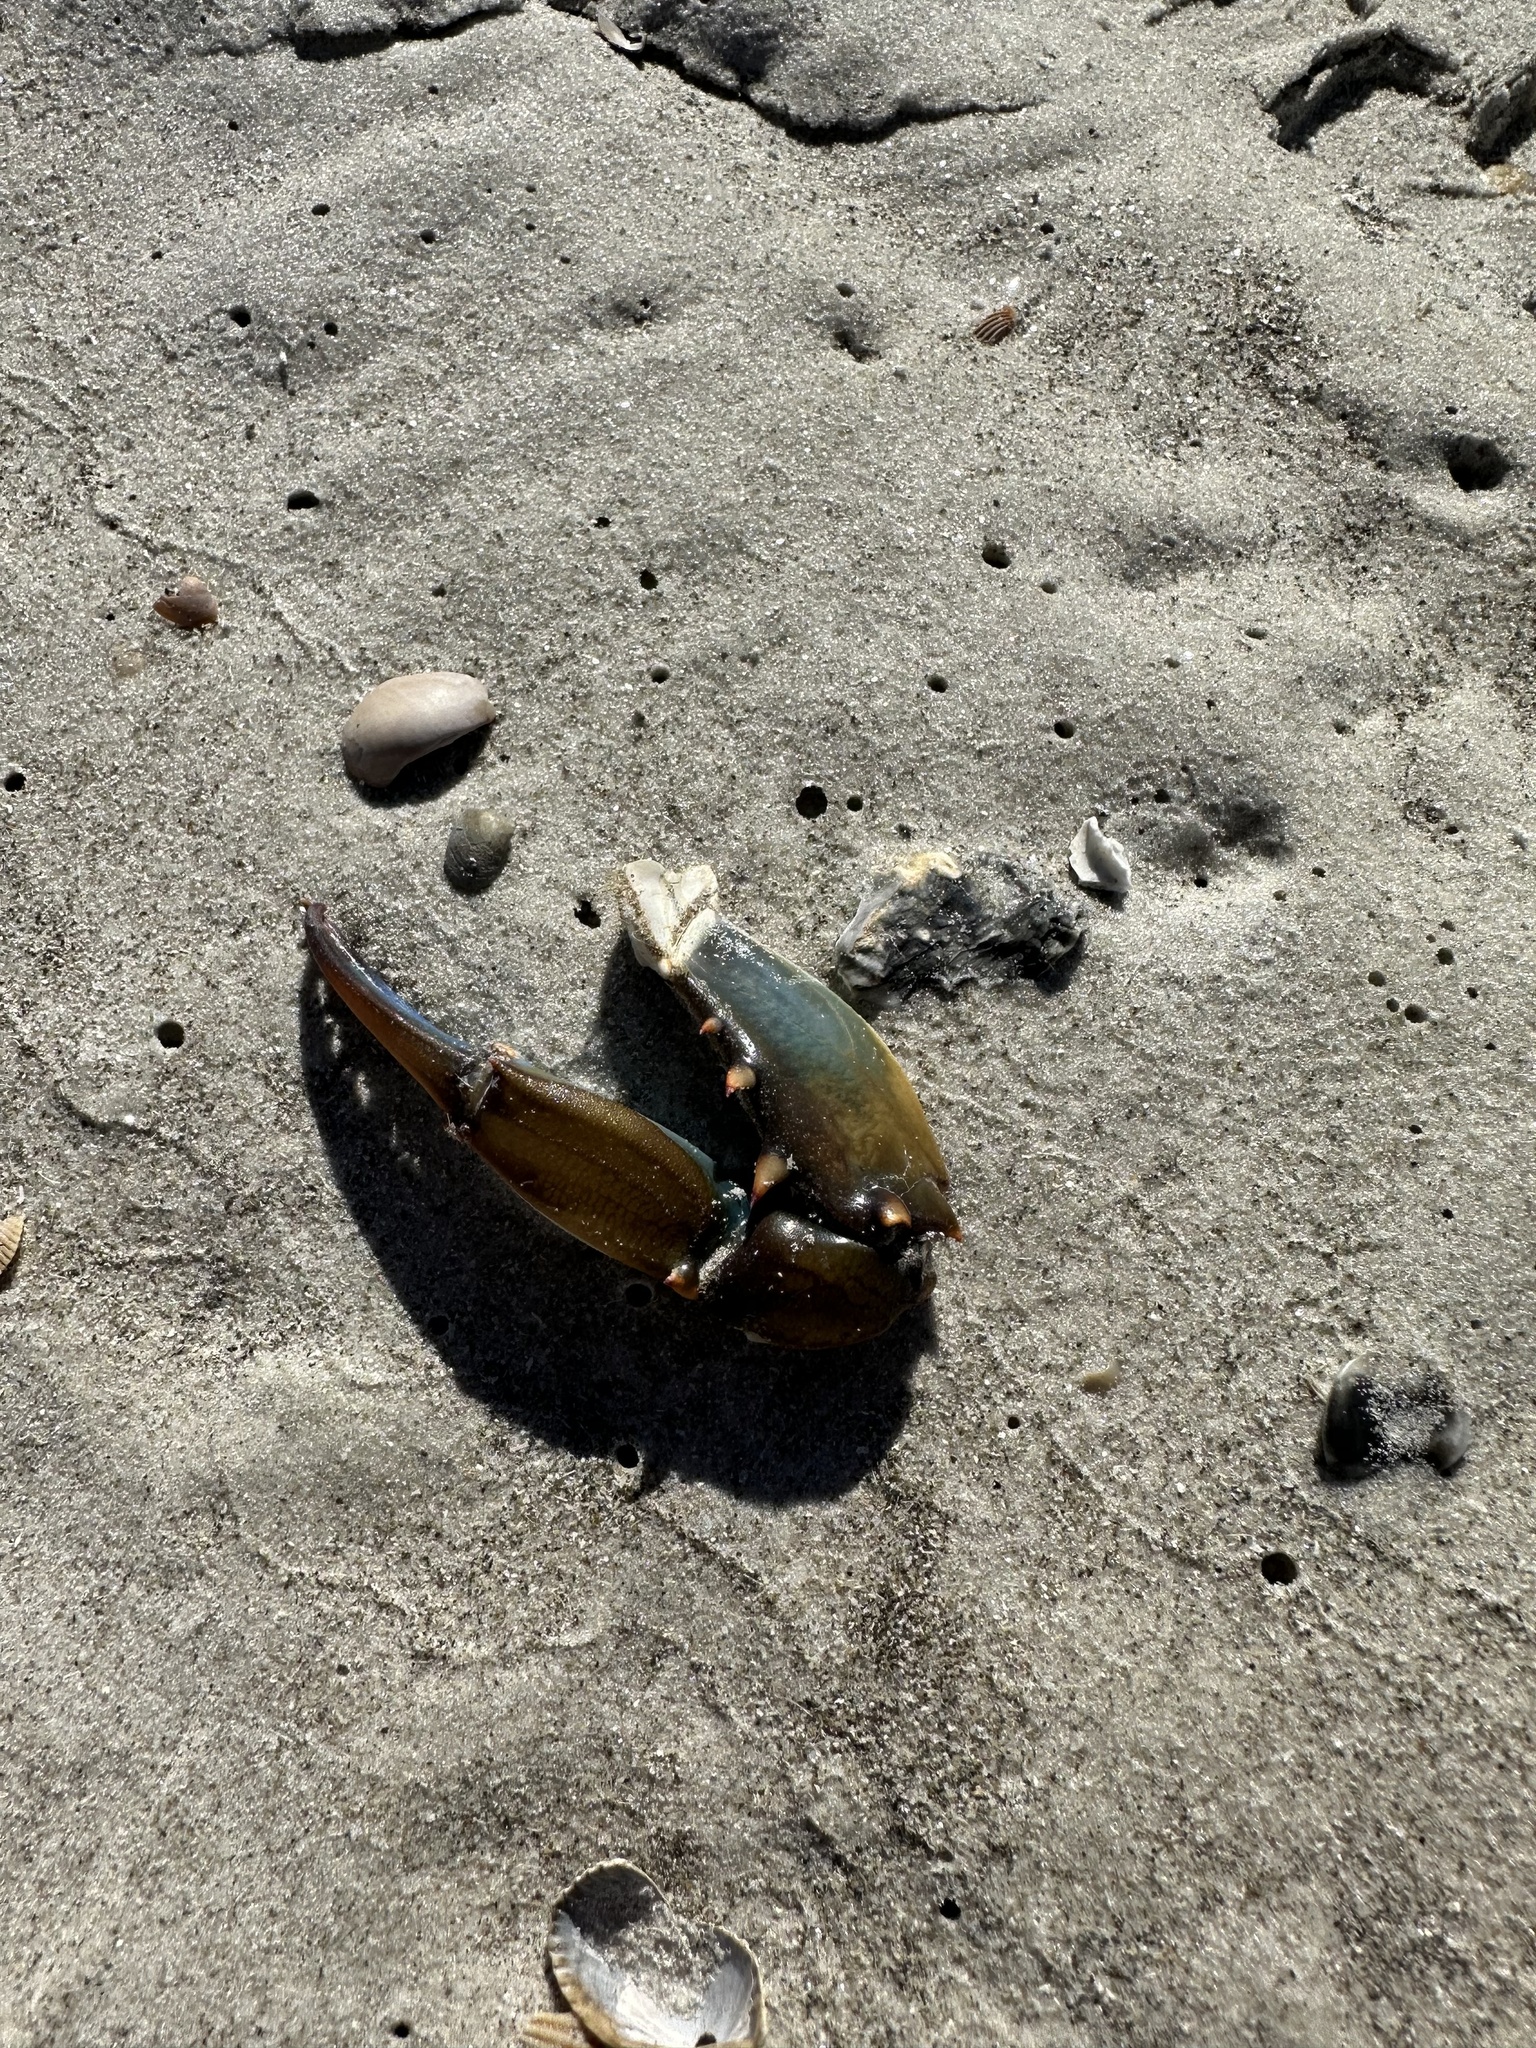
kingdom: Animalia
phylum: Arthropoda
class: Malacostraca
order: Decapoda
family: Portunidae
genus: Callinectes
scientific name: Callinectes sapidus
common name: Blue crab
